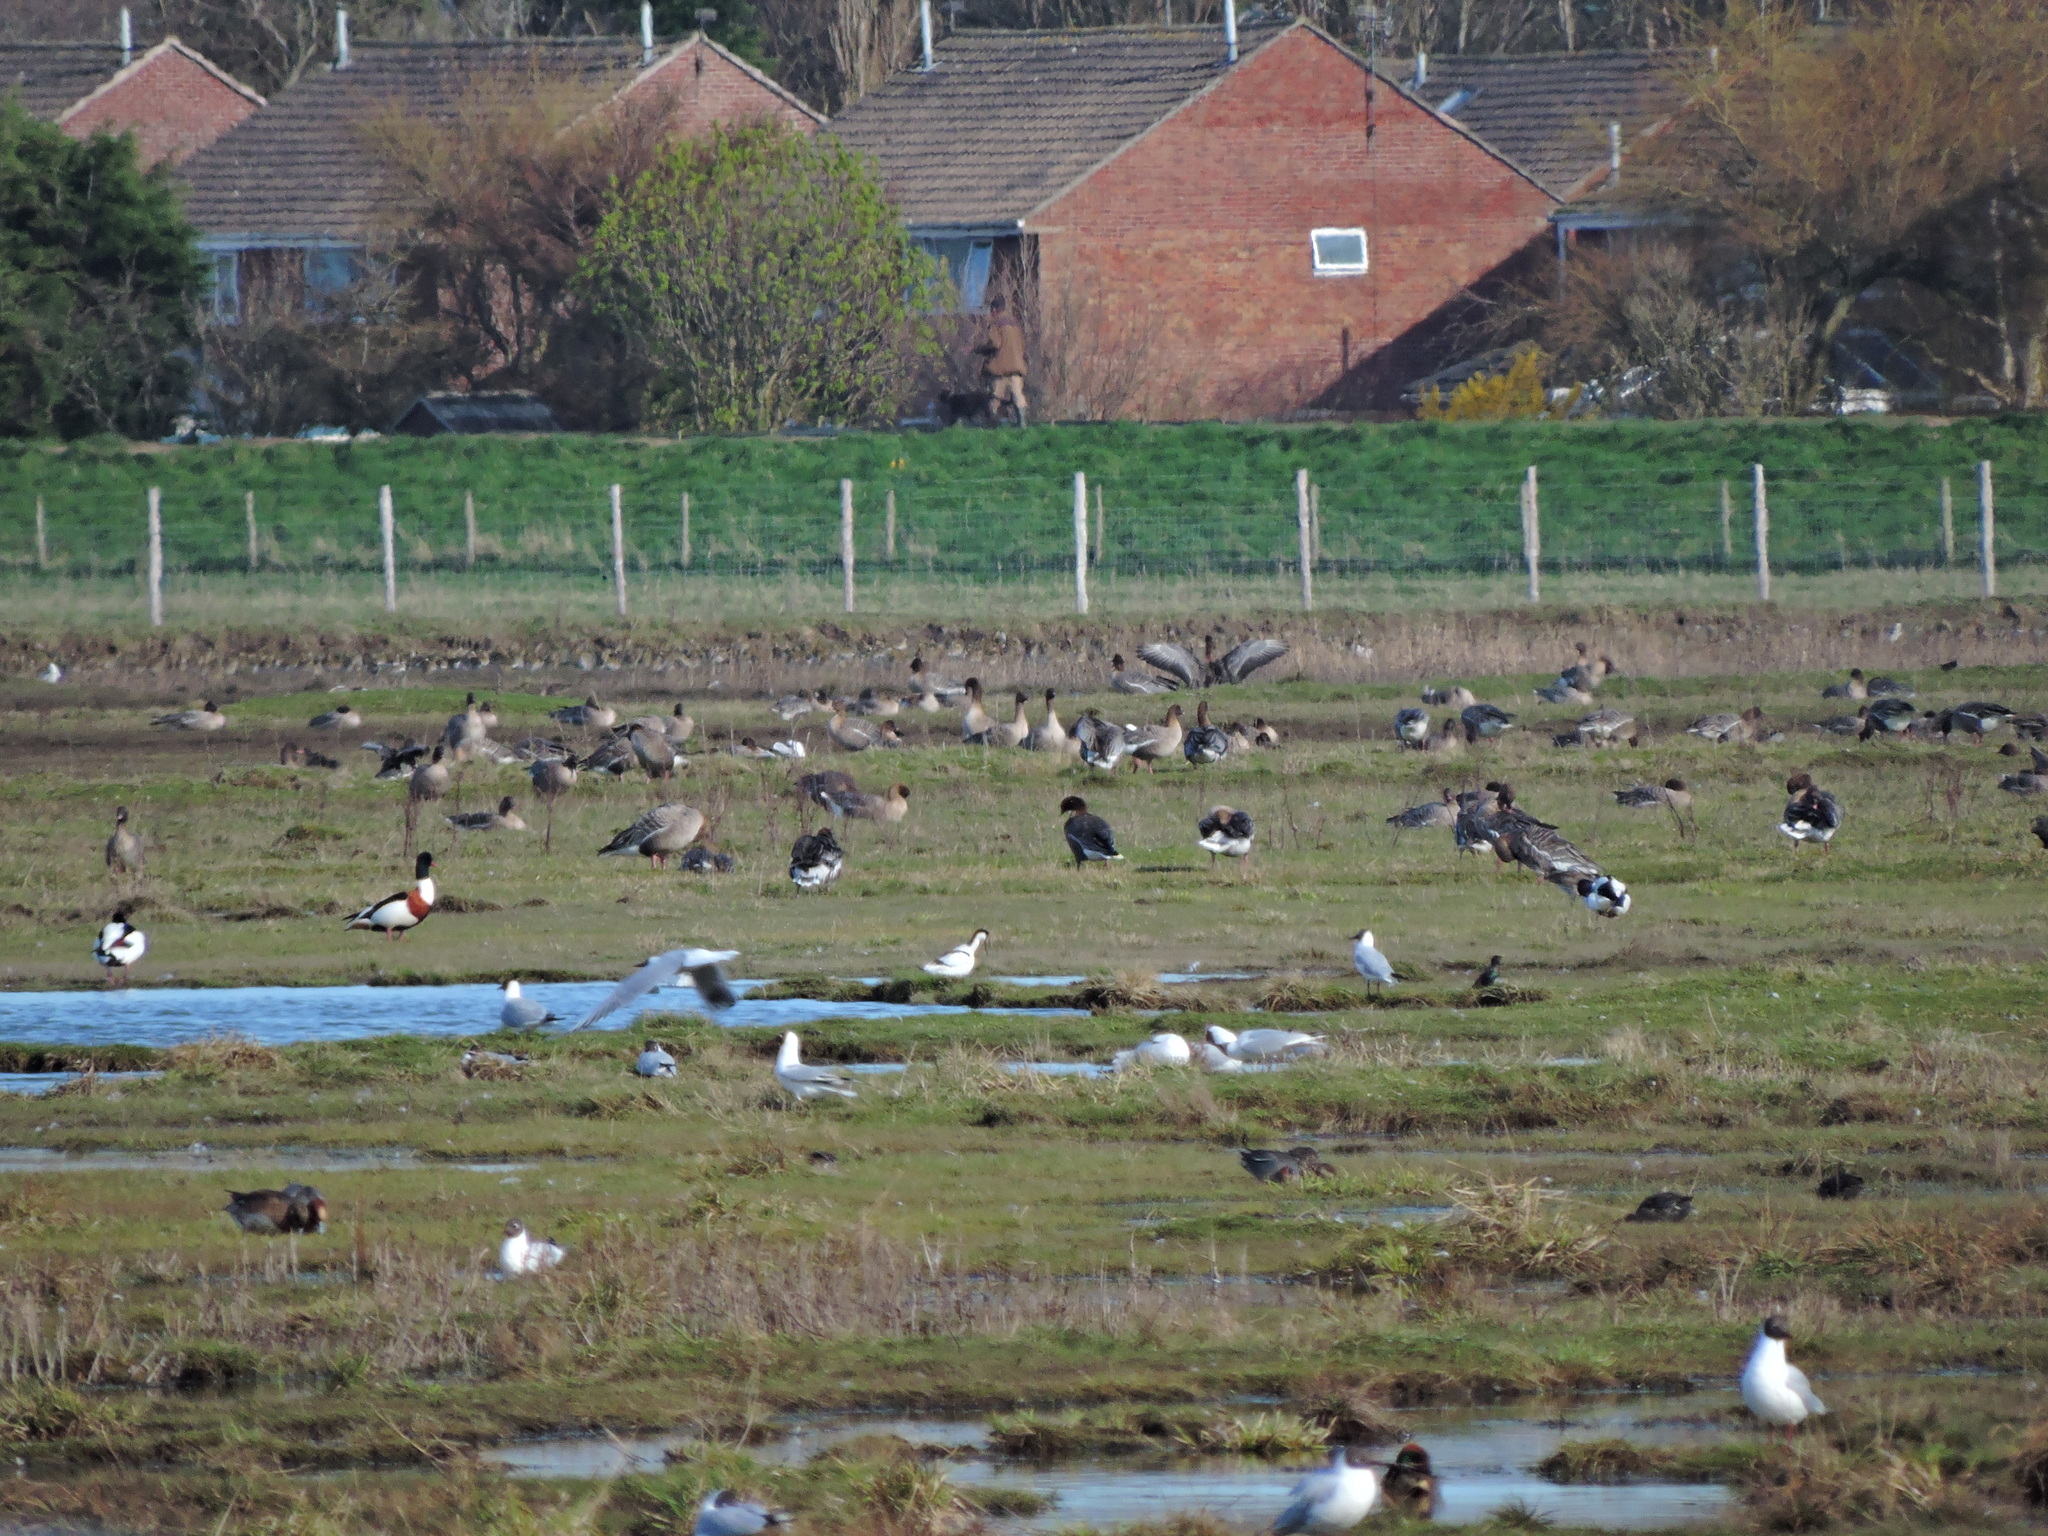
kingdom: Animalia
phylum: Chordata
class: Aves
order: Anseriformes
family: Anatidae
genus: Anser
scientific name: Anser brachyrhynchus
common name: Pink-footed goose
